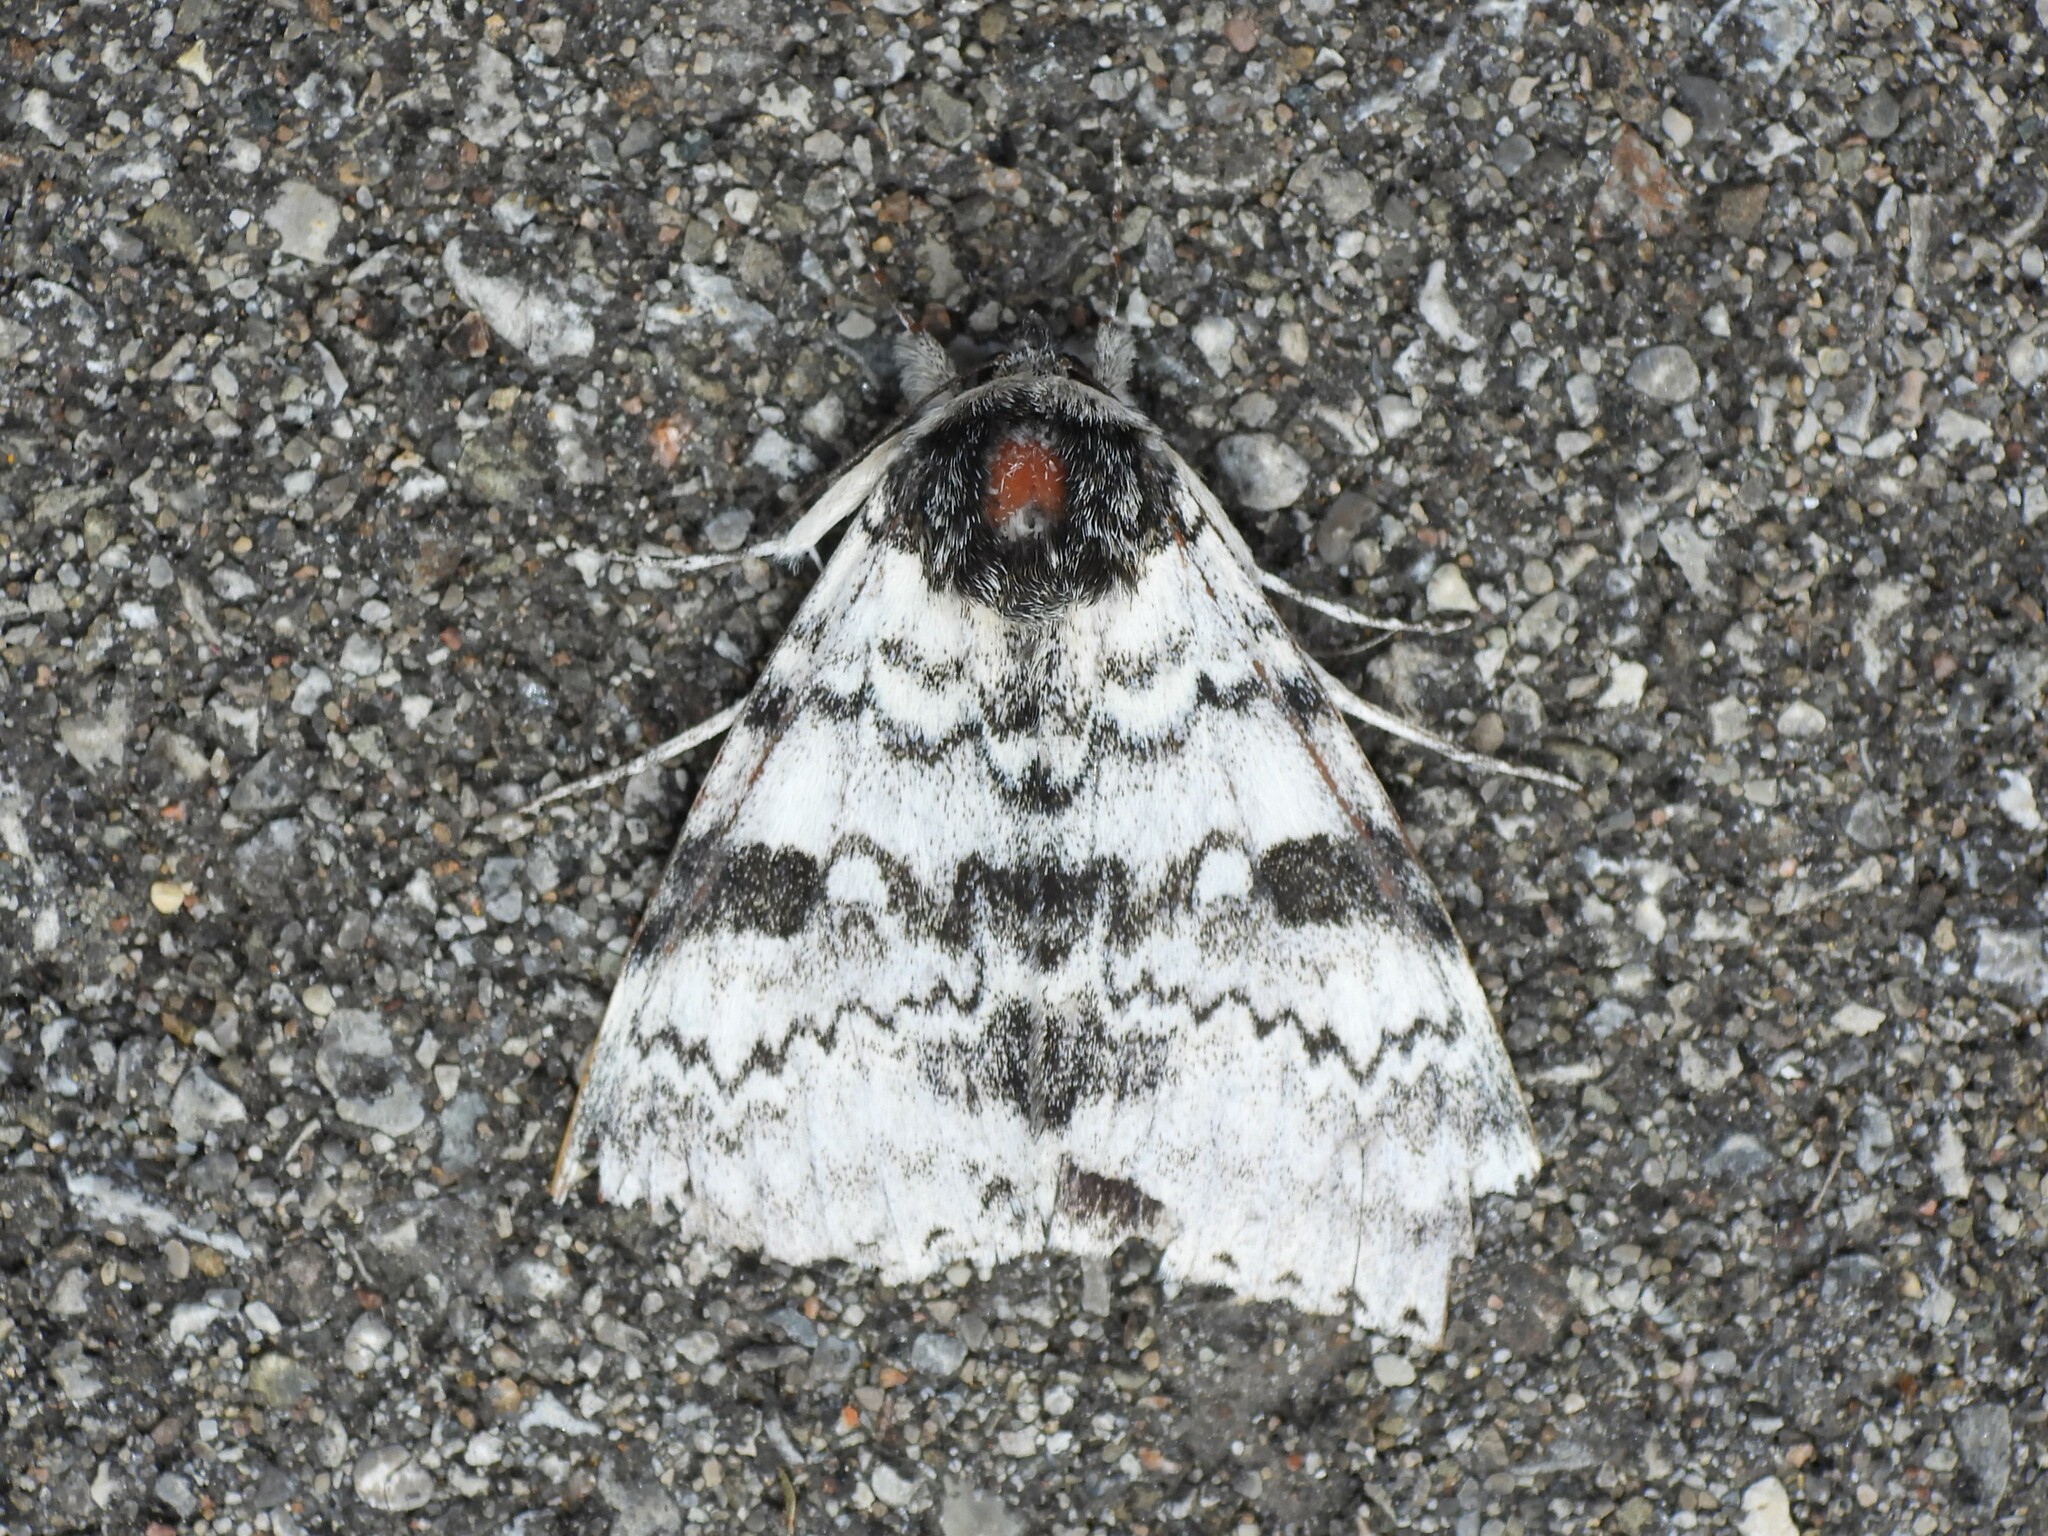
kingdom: Animalia
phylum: Arthropoda
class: Insecta
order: Lepidoptera
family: Erebidae
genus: Catocala
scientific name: Catocala relicta
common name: White underwing
